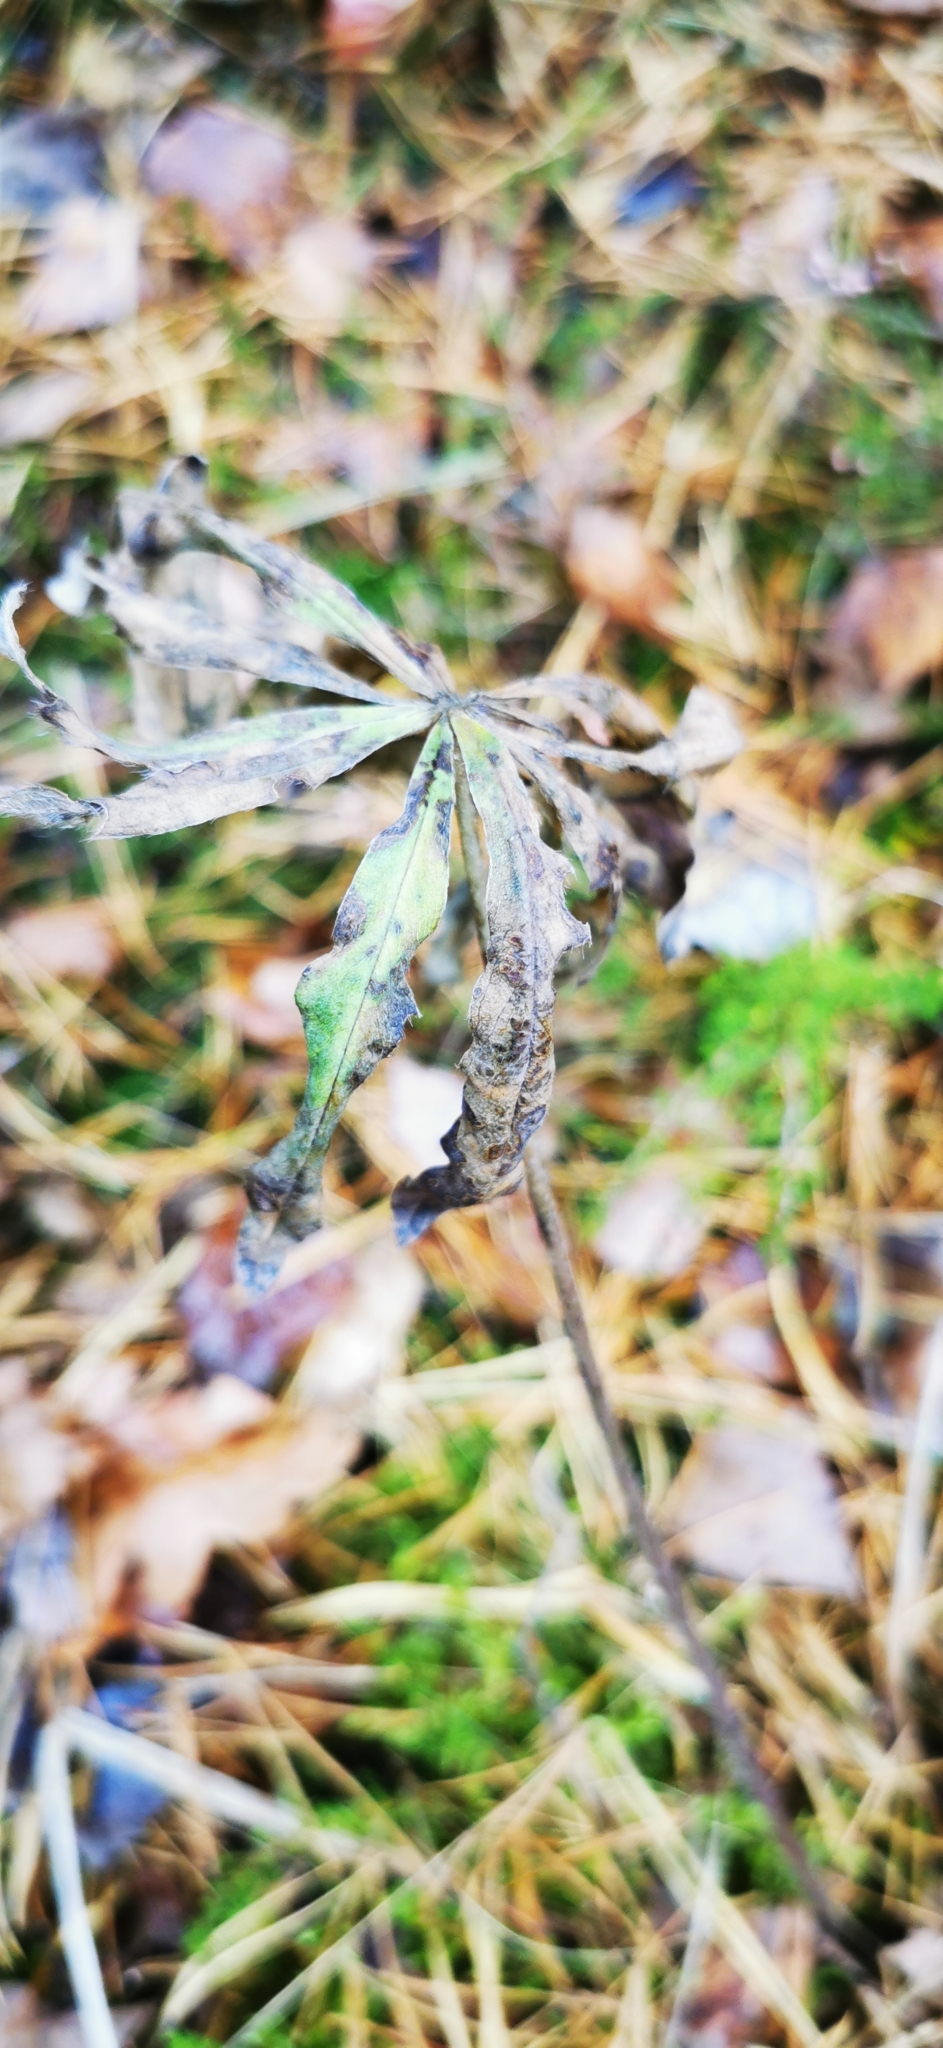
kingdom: Plantae
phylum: Tracheophyta
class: Magnoliopsida
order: Fabales
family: Fabaceae
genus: Lupinus
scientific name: Lupinus polyphyllus
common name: Garden lupin
